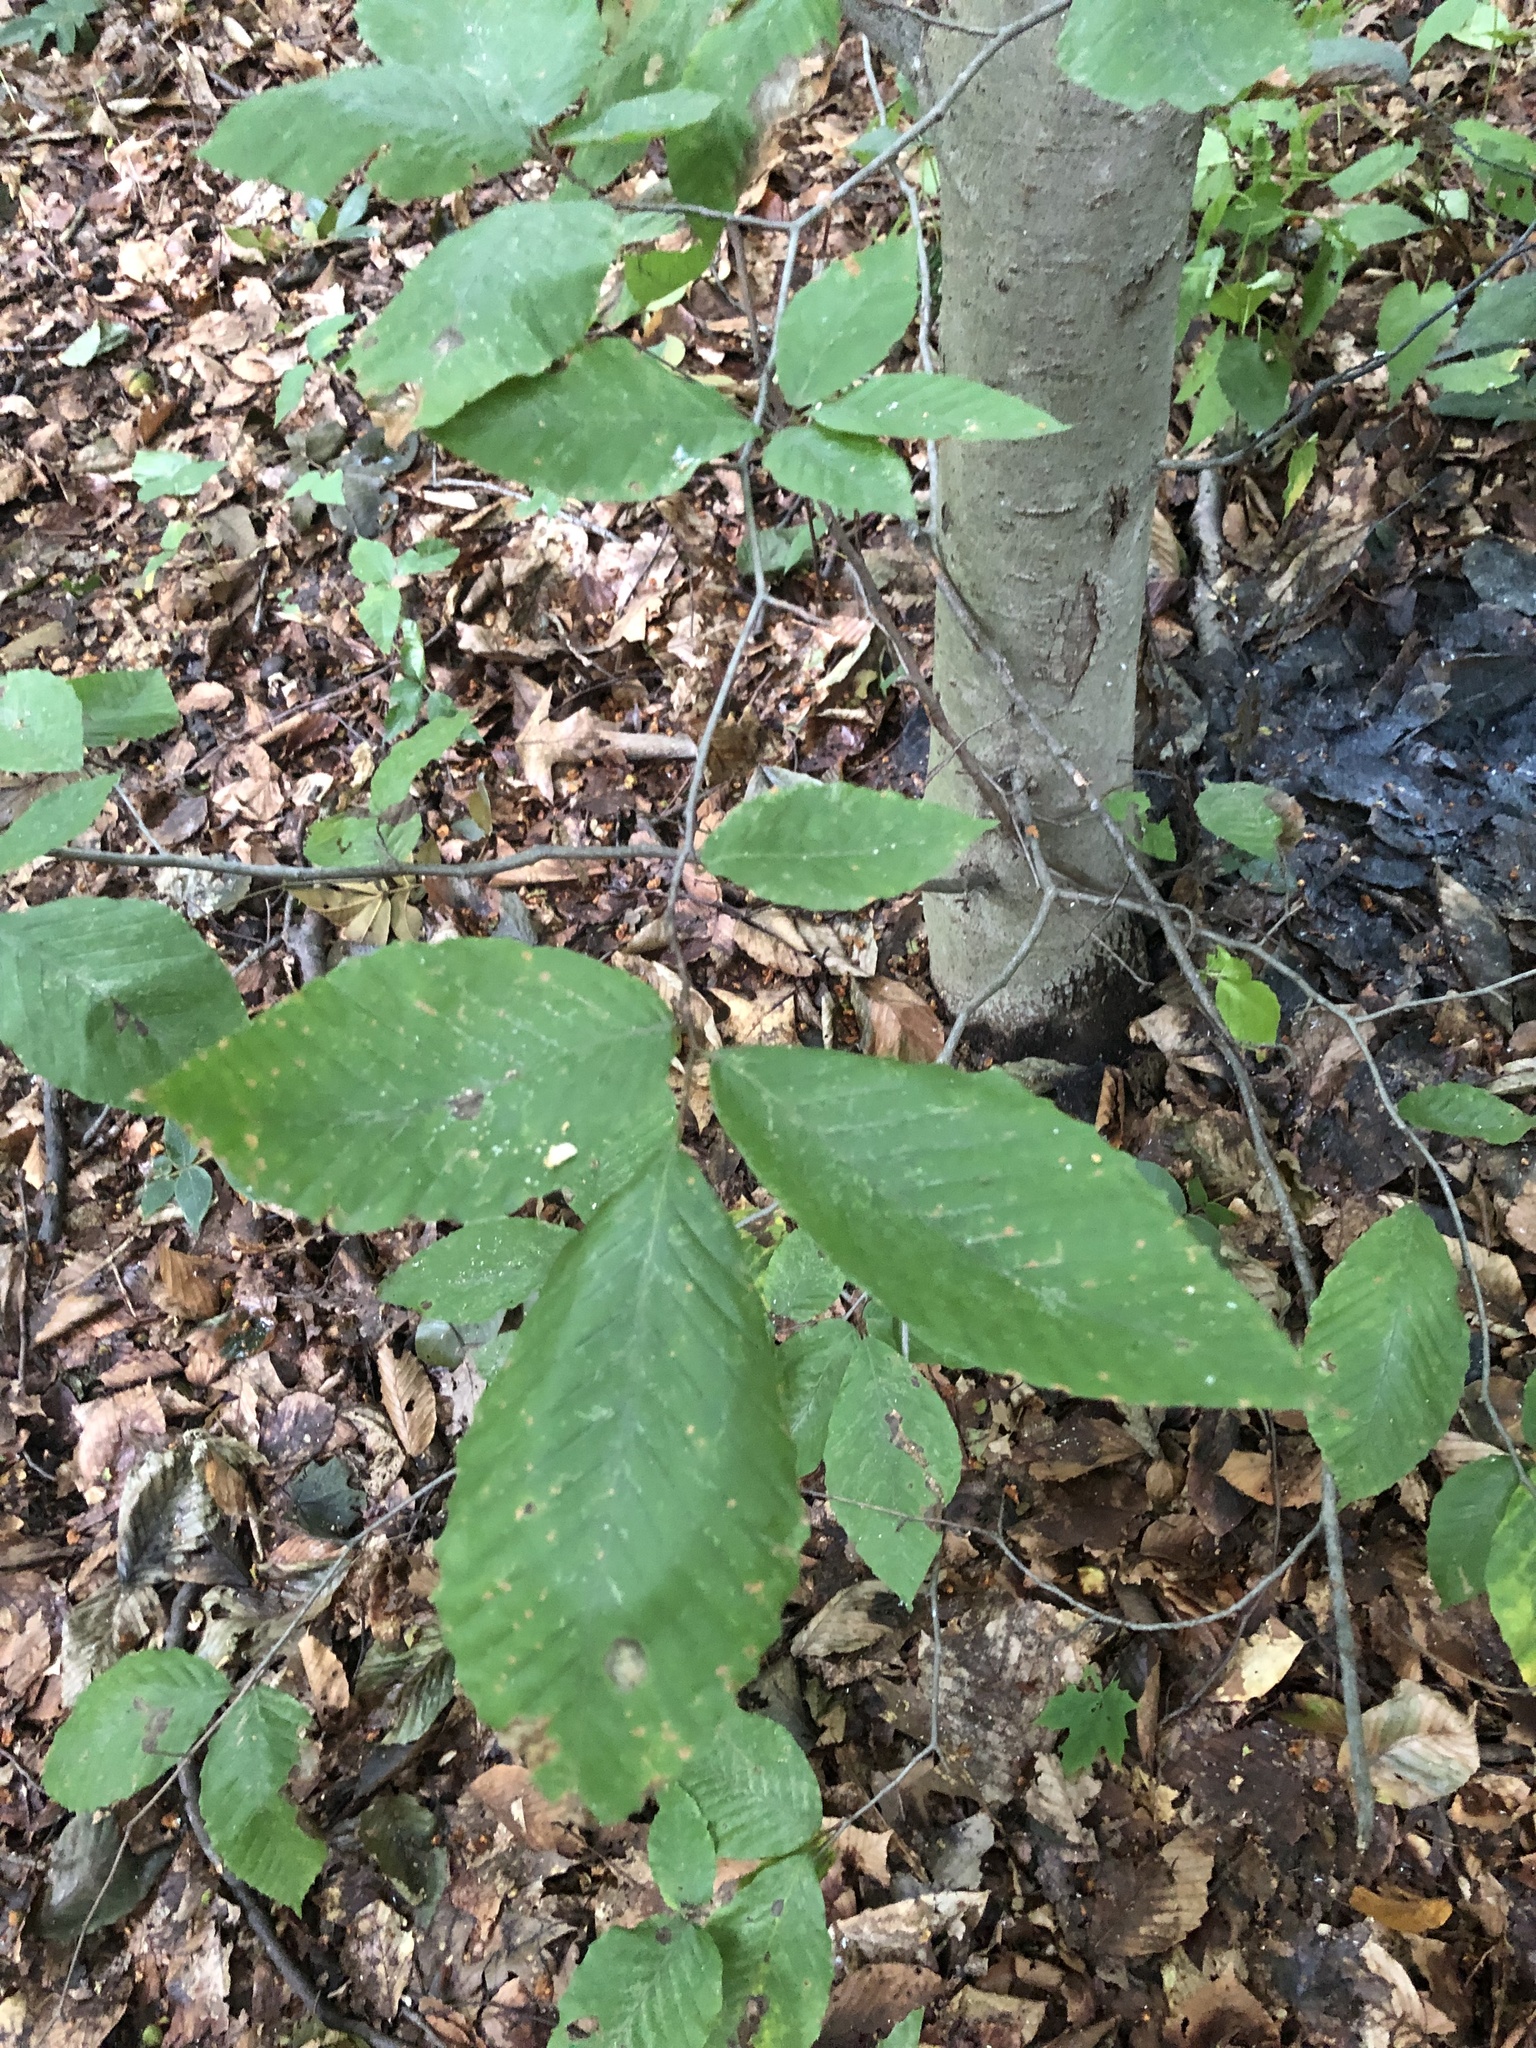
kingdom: Plantae
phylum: Tracheophyta
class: Magnoliopsida
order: Fagales
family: Fagaceae
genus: Fagus
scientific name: Fagus grandifolia
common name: American beech
